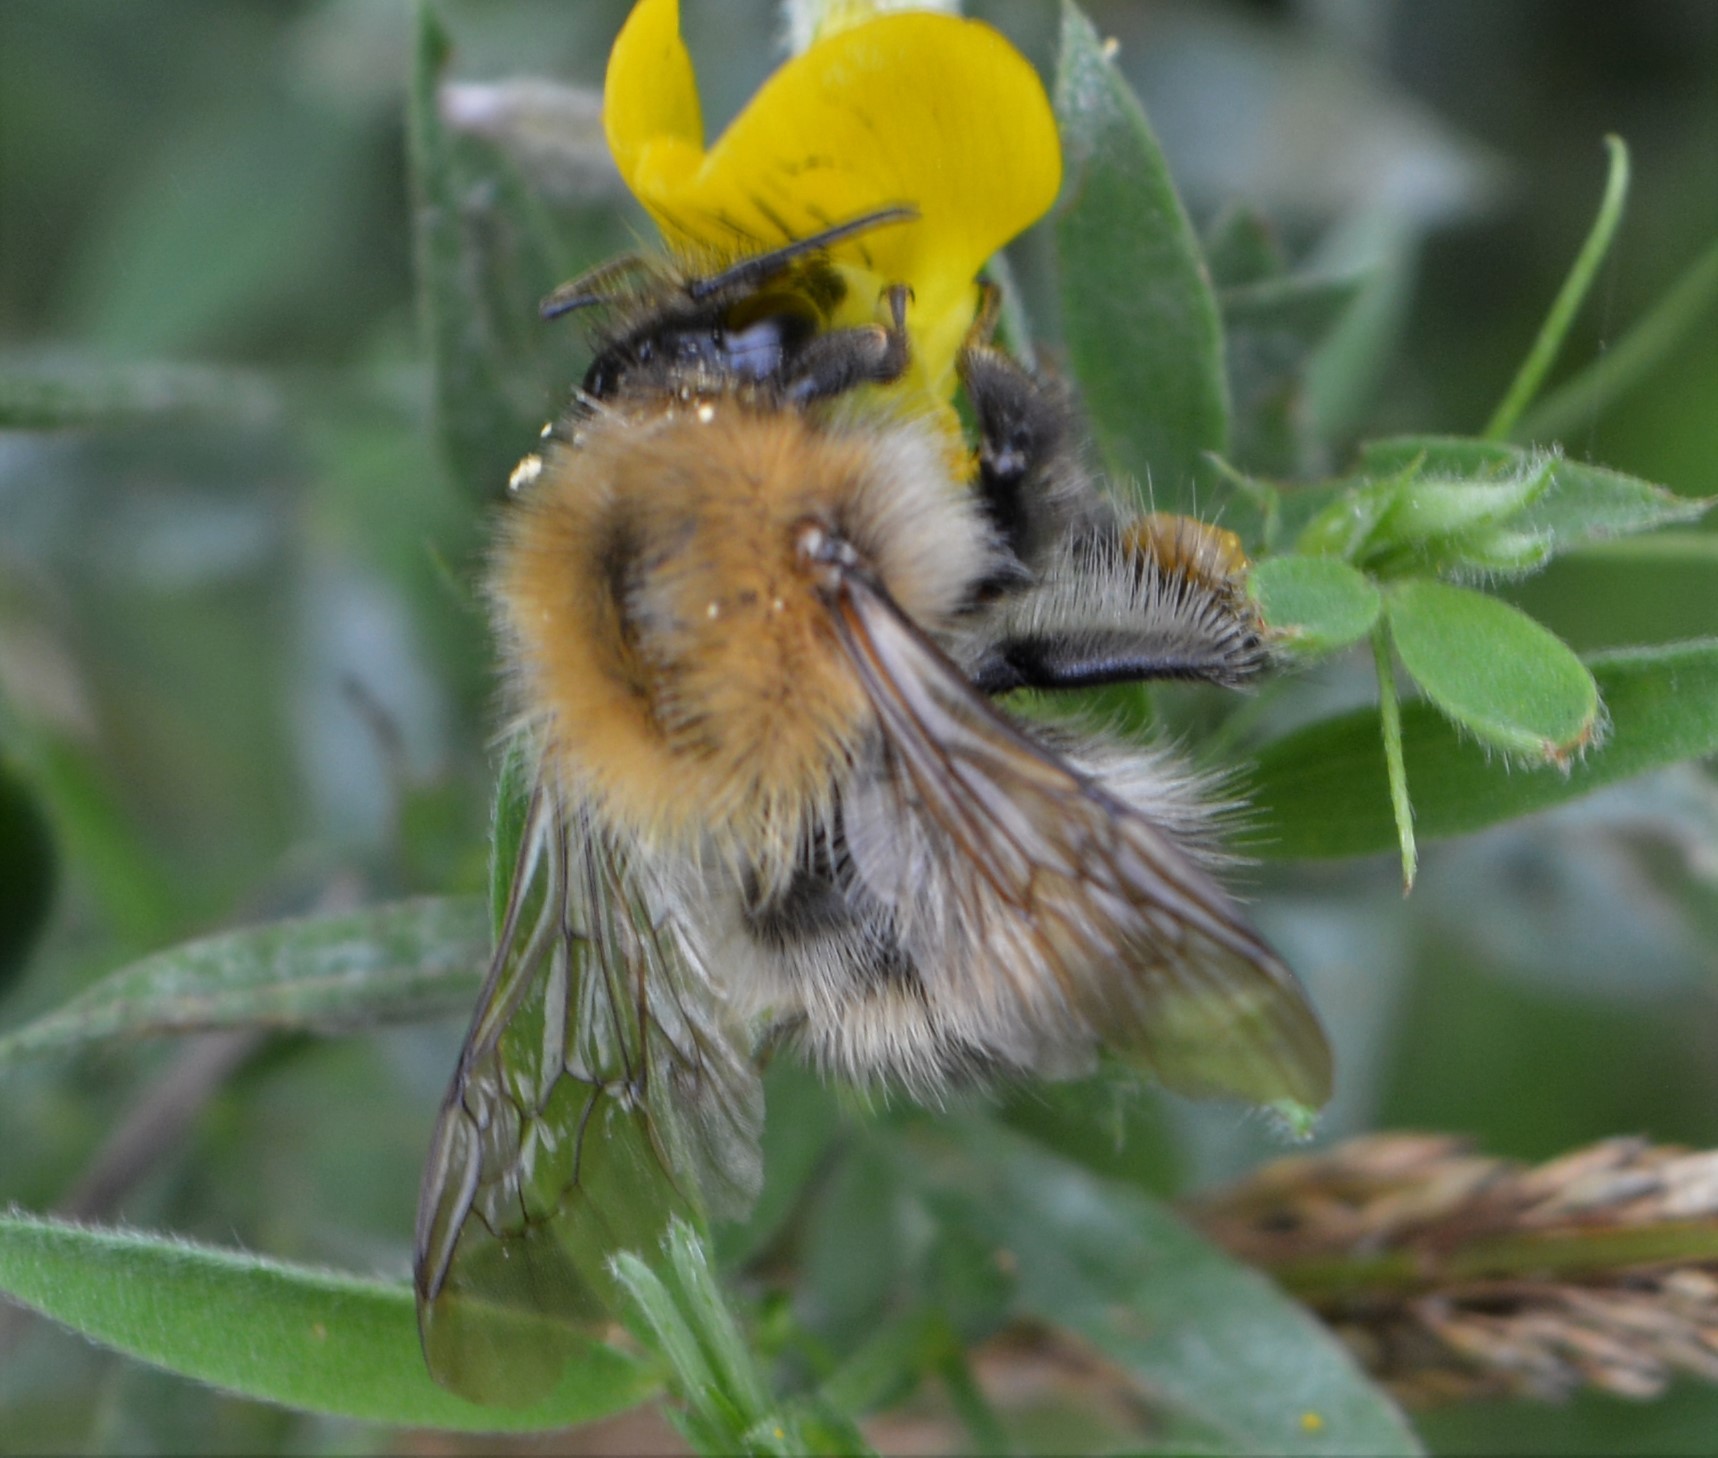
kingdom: Animalia
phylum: Arthropoda
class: Insecta
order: Hymenoptera
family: Apidae
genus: Bombus
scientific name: Bombus pascuorum
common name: Common carder bee
